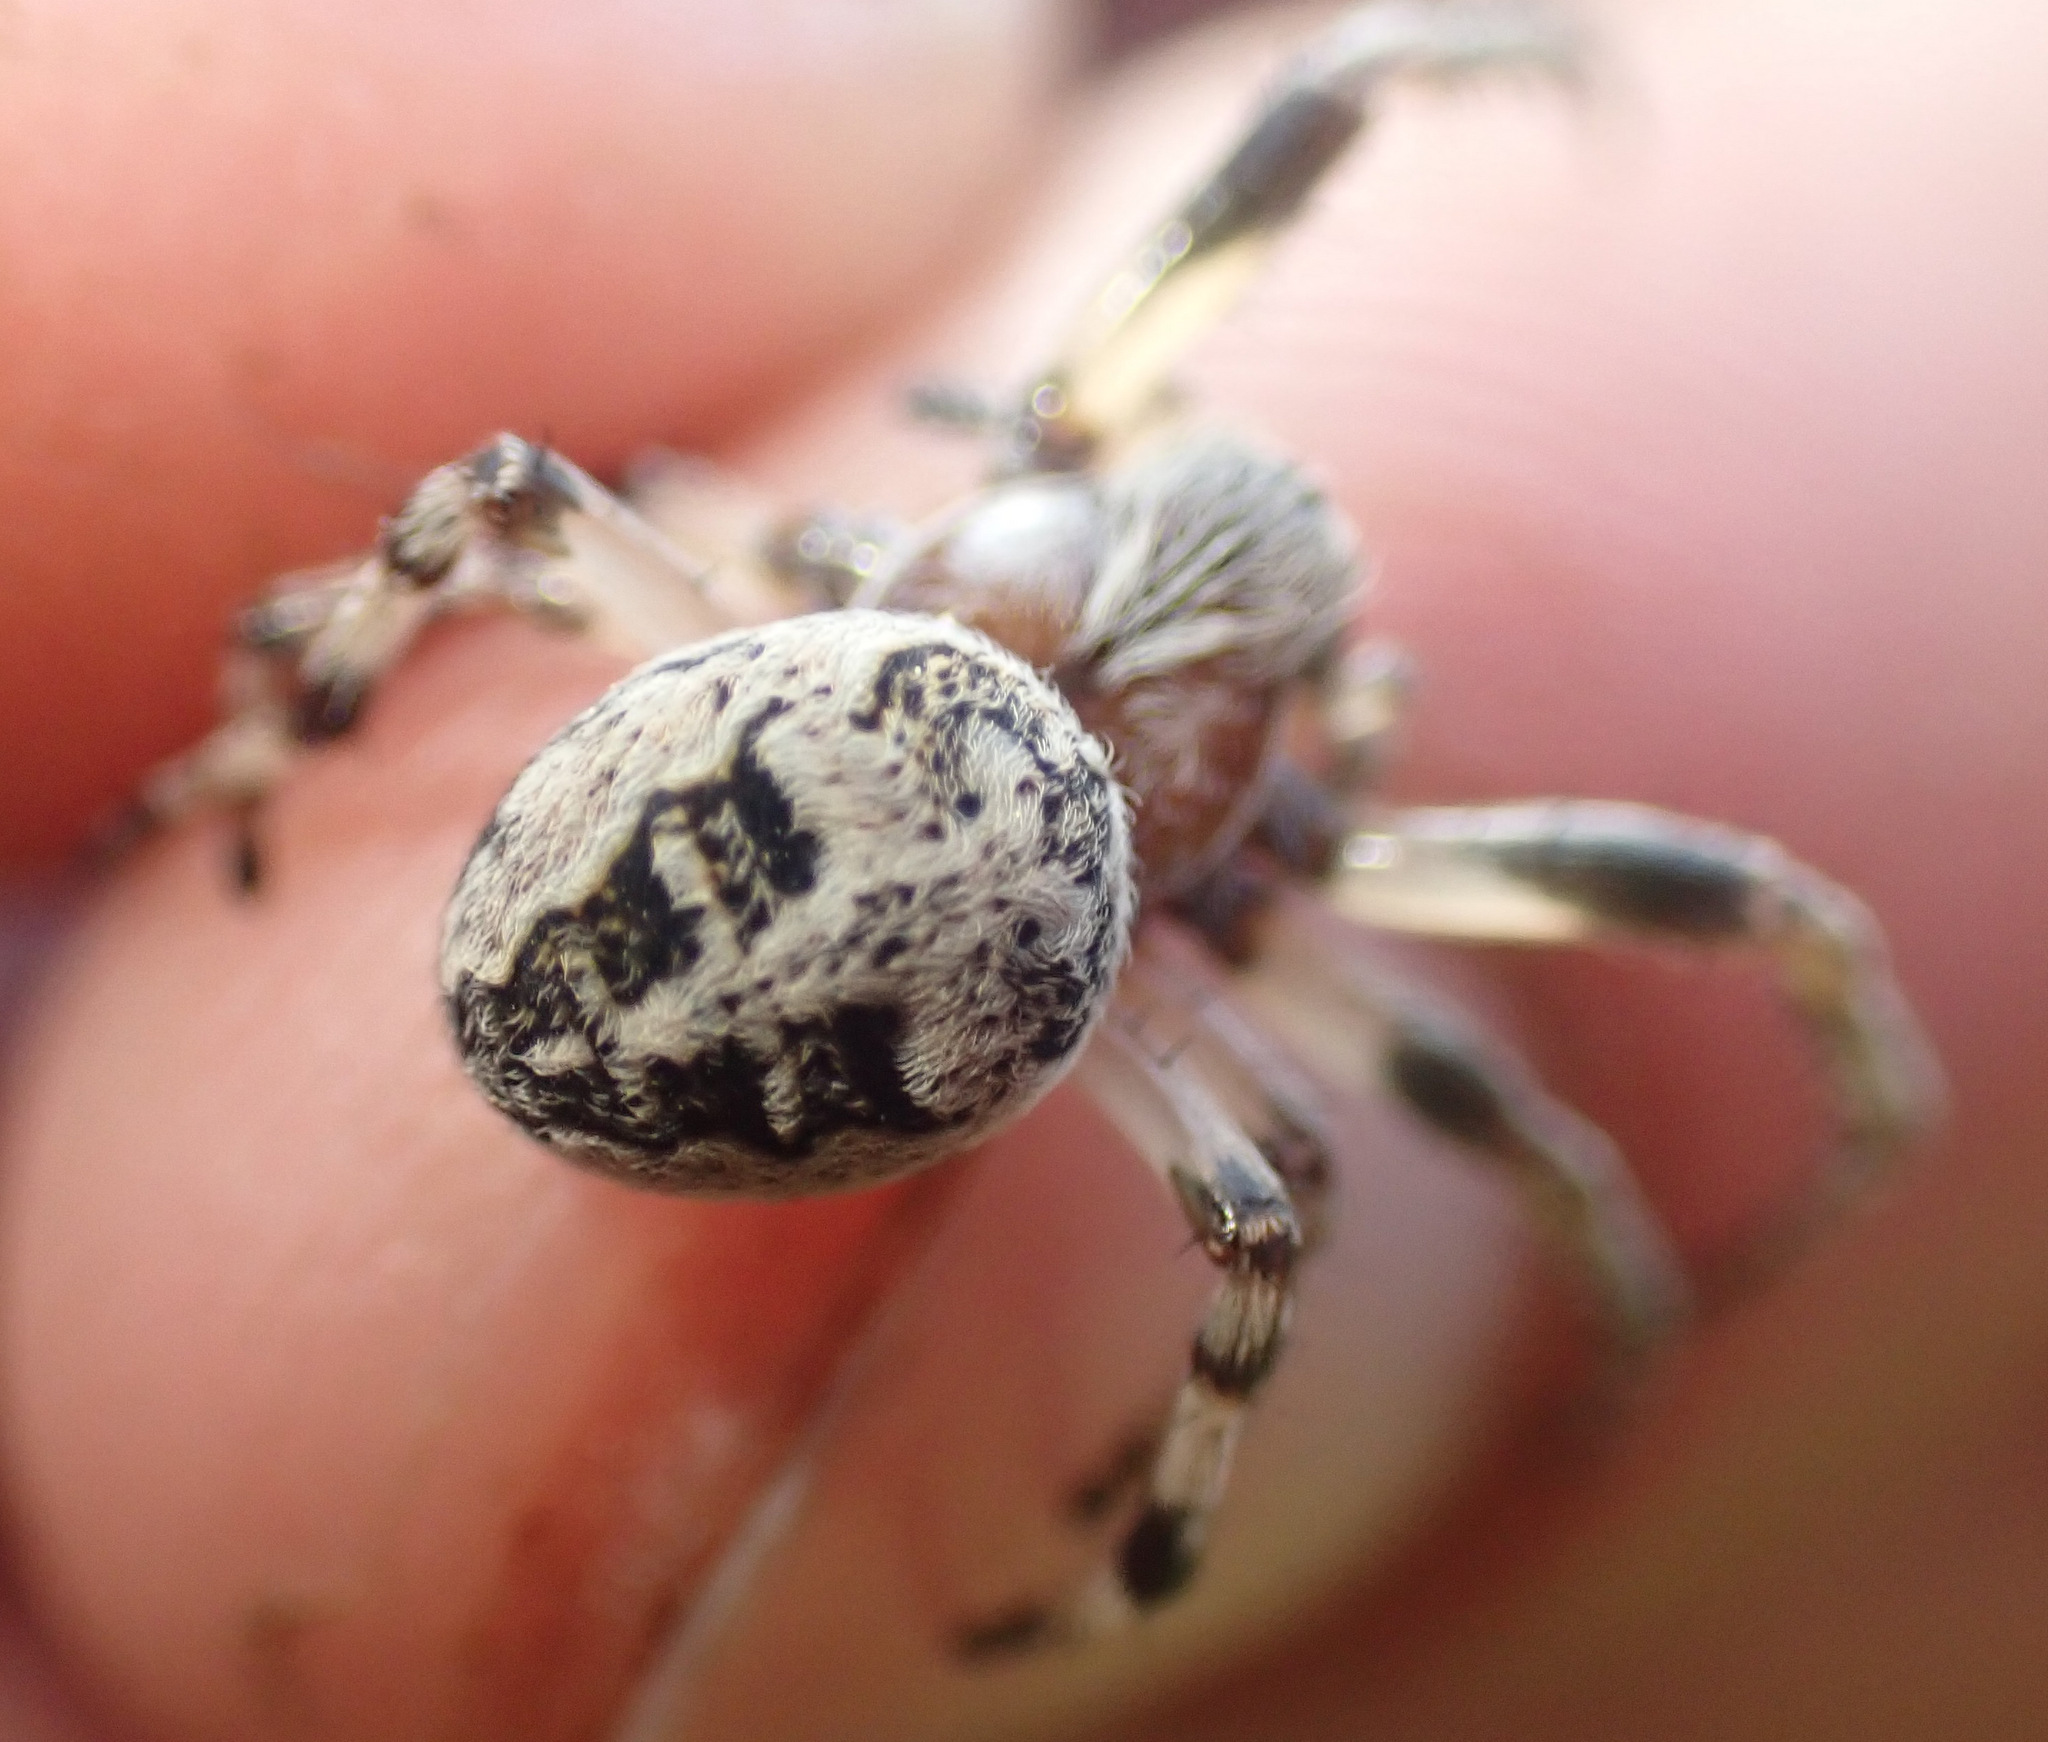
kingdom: Animalia
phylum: Arthropoda
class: Arachnida
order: Araneae
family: Araneidae
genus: Larinioides
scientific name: Larinioides cornutus
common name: Furrow orbweaver
